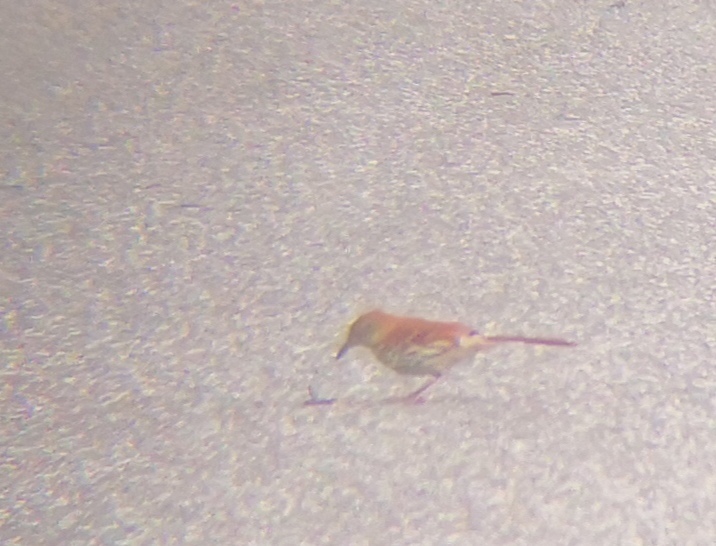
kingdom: Animalia
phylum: Chordata
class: Aves
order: Passeriformes
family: Mimidae
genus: Toxostoma
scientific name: Toxostoma rufum
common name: Brown thrasher
